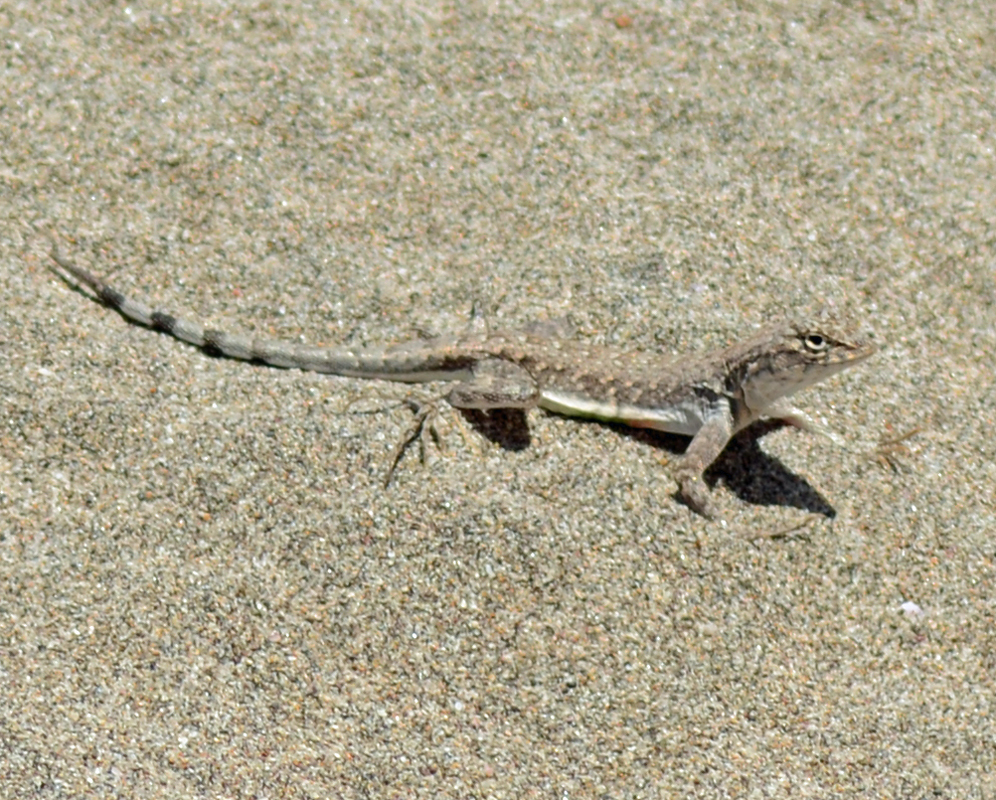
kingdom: Animalia
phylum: Chordata
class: Squamata
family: Phrynosomatidae
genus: Callisaurus
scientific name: Callisaurus draconoides
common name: Zebra-tailed lizard
